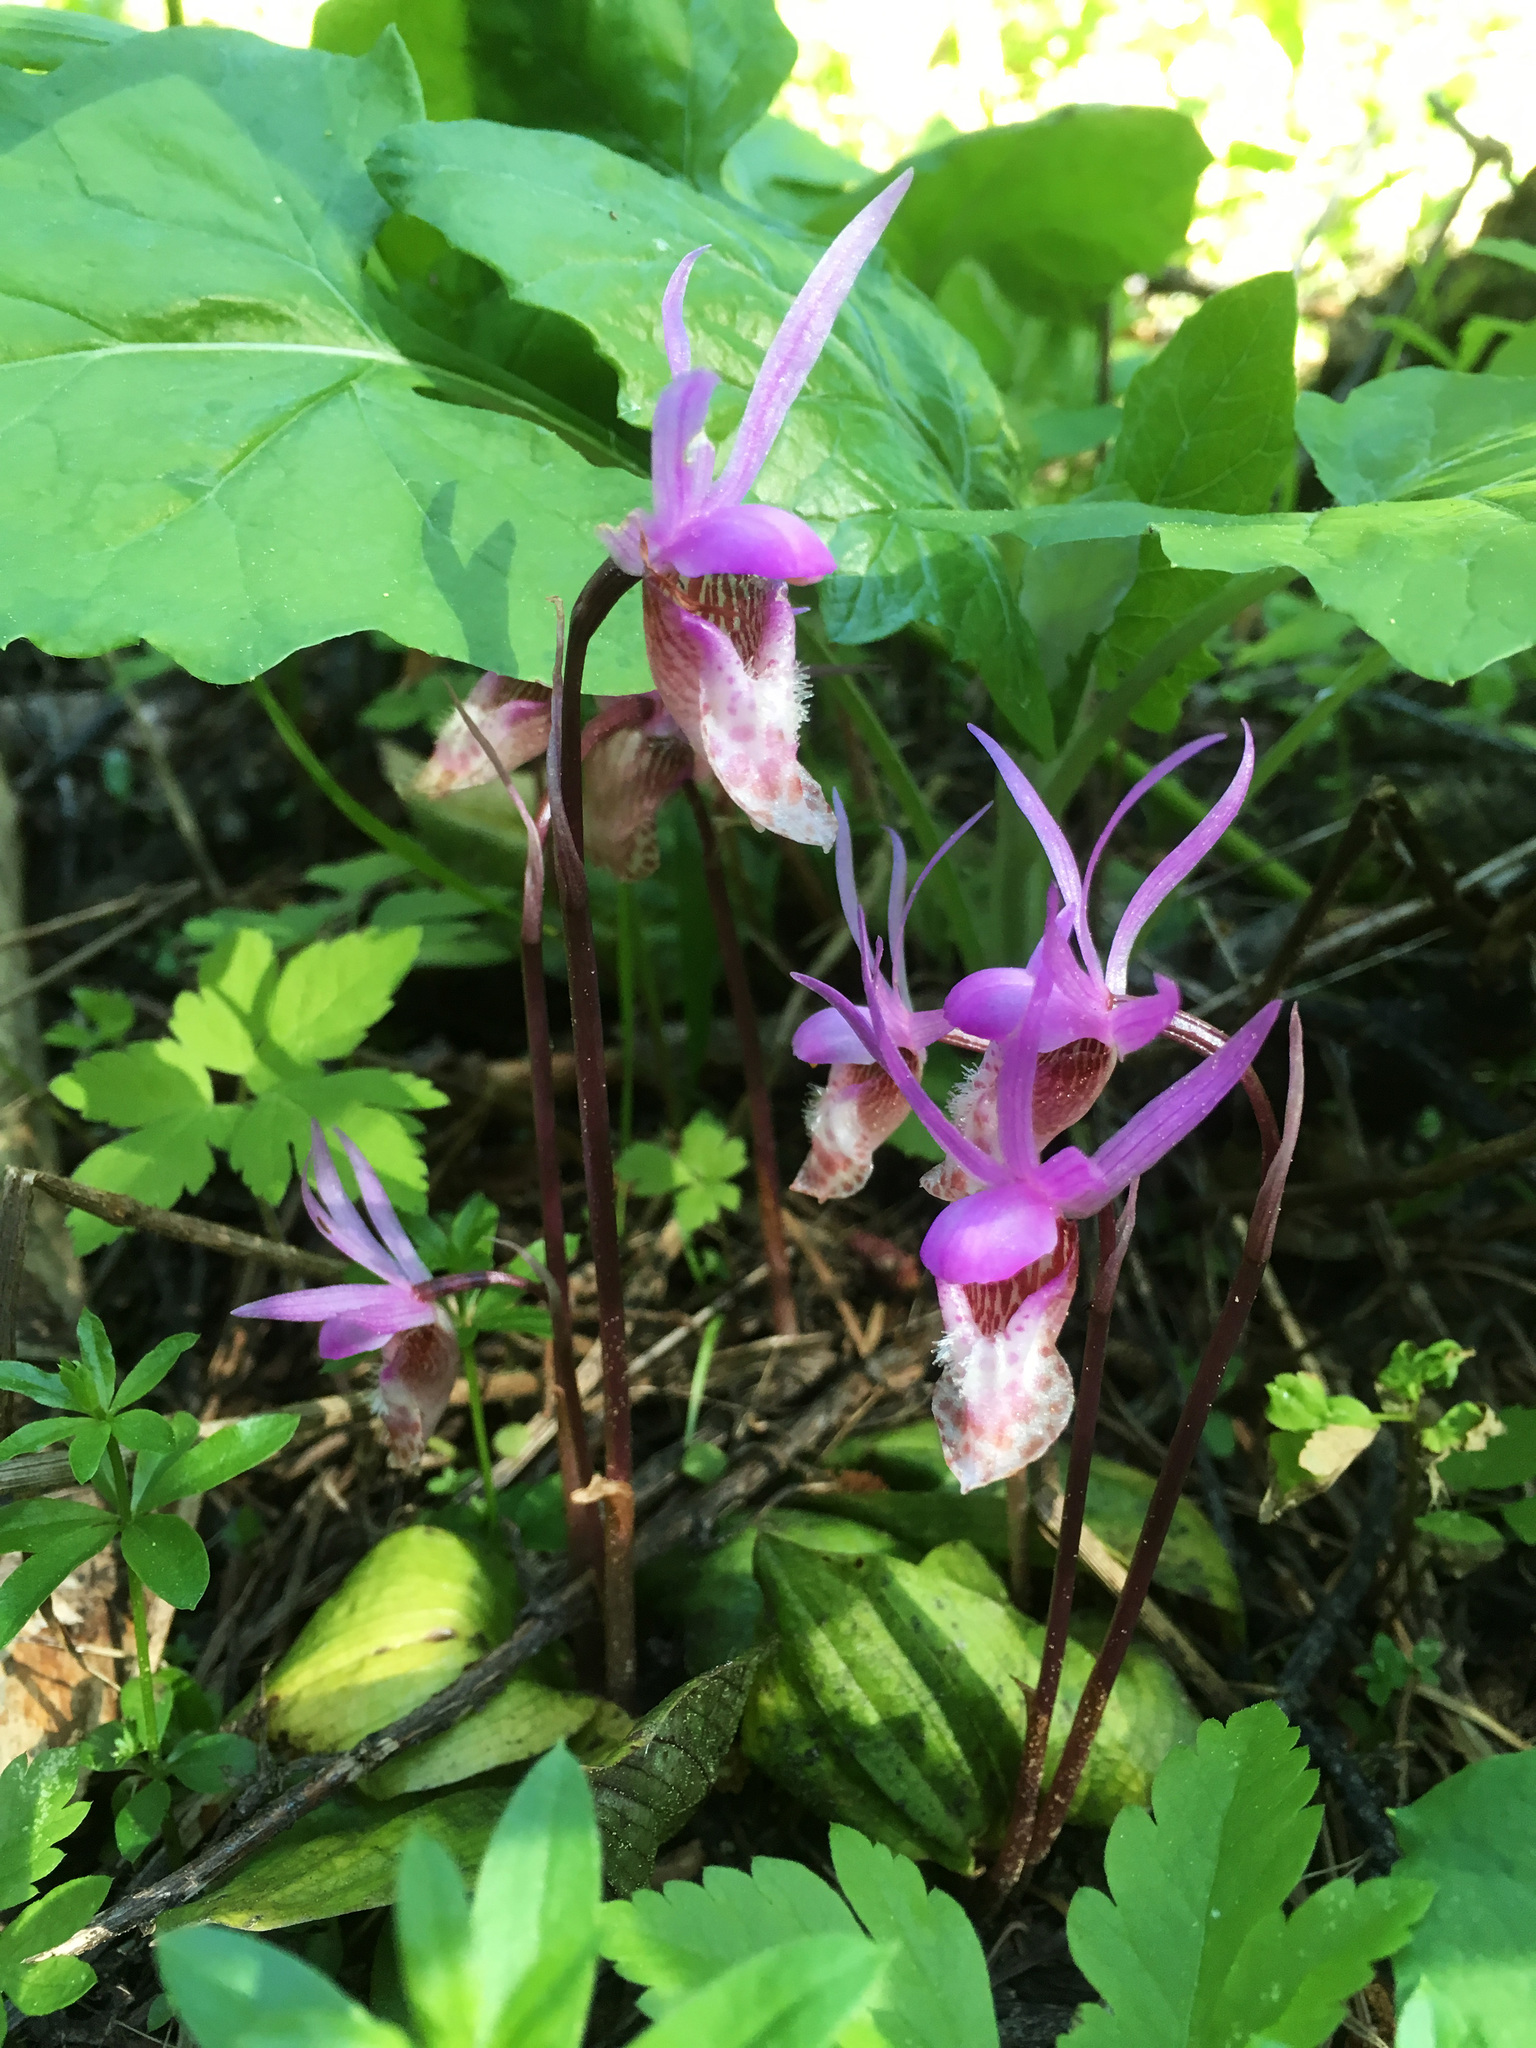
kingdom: Plantae
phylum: Tracheophyta
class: Liliopsida
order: Asparagales
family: Orchidaceae
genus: Calypso
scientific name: Calypso bulbosa
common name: Calypso
